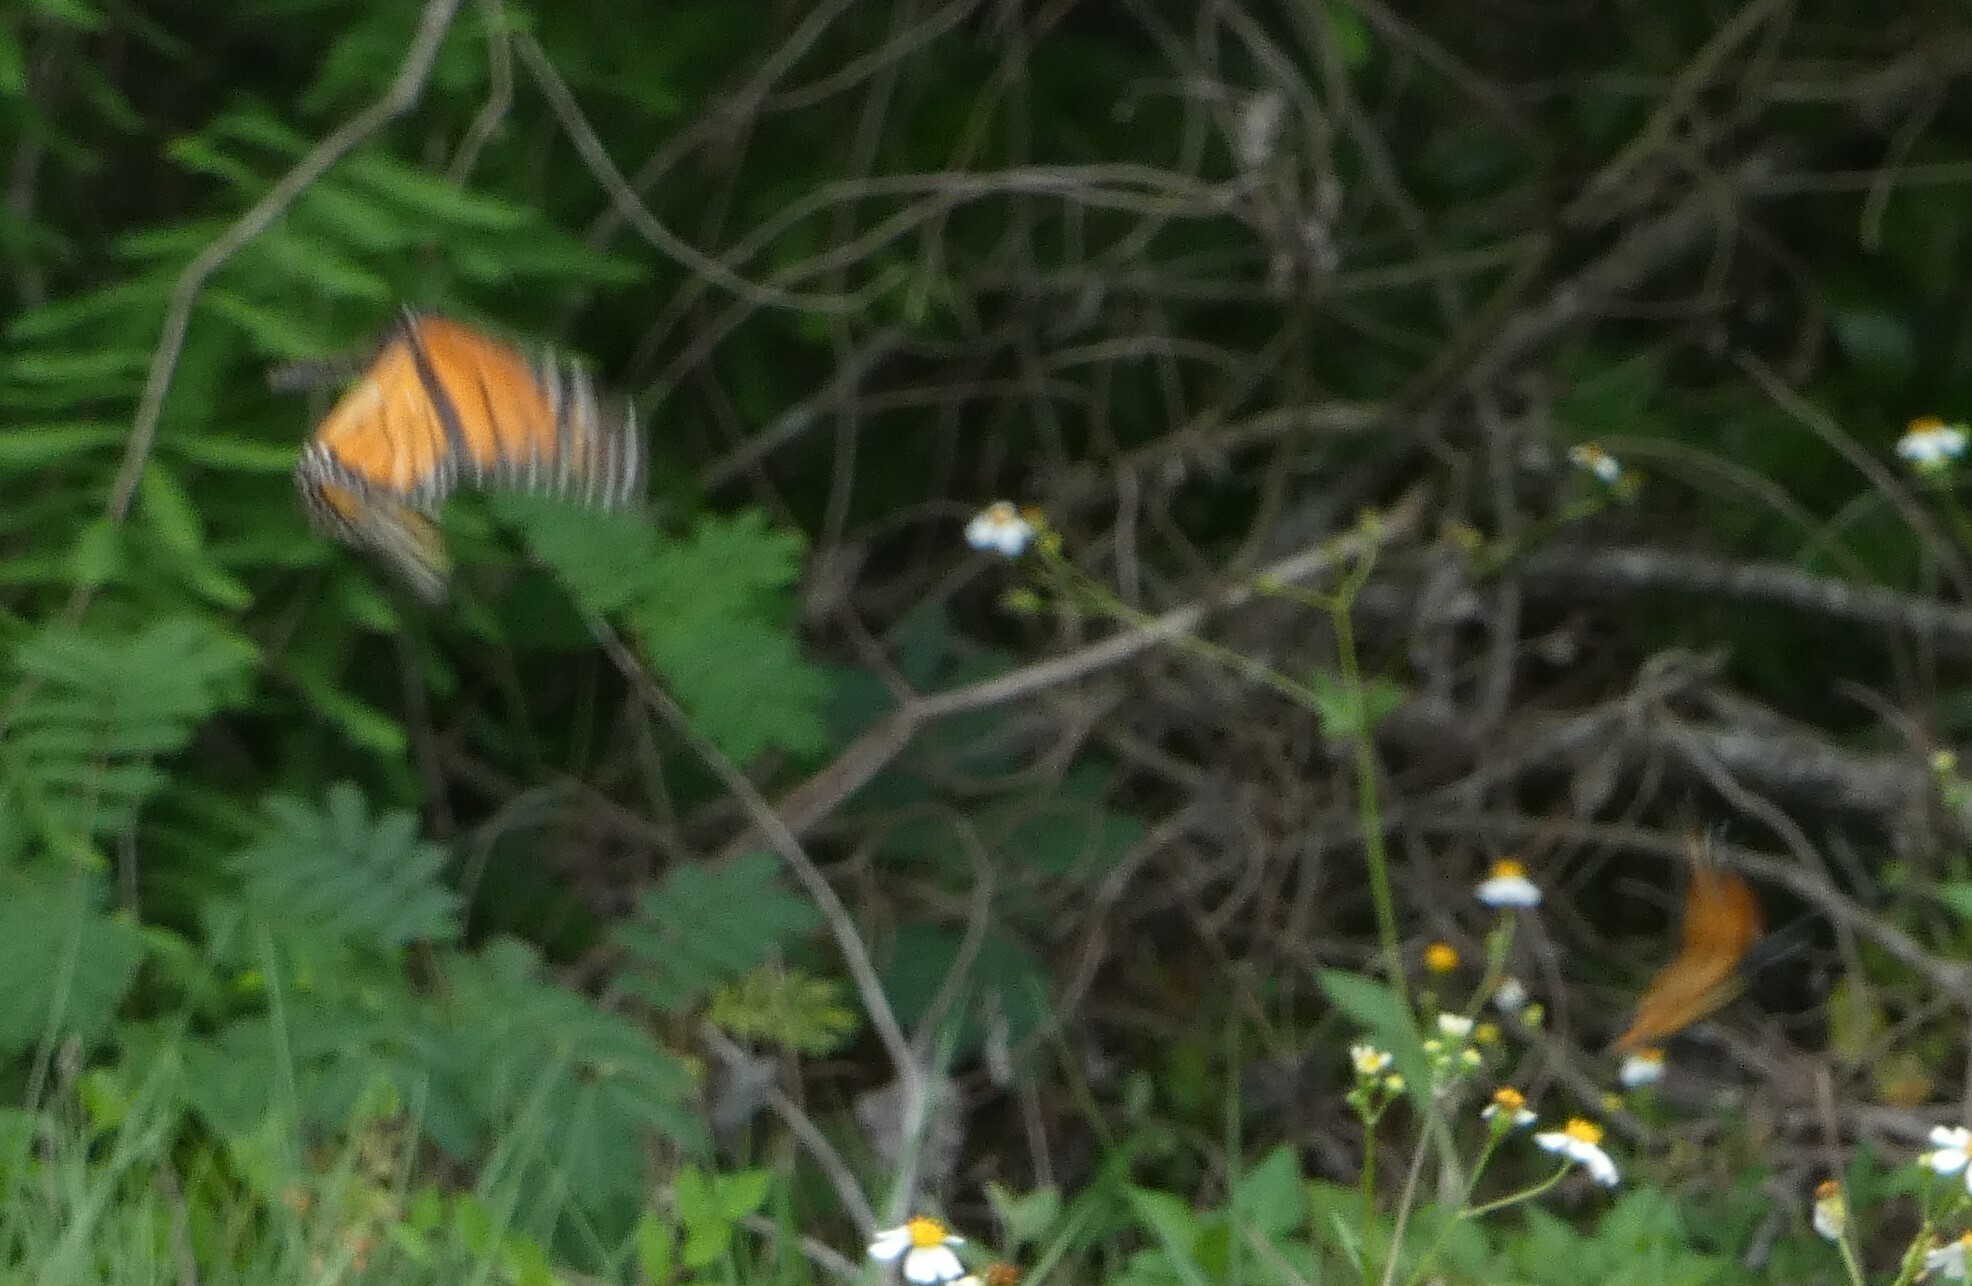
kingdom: Animalia
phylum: Arthropoda
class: Insecta
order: Lepidoptera
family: Nymphalidae
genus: Danaus
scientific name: Danaus plexippus
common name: Monarch
